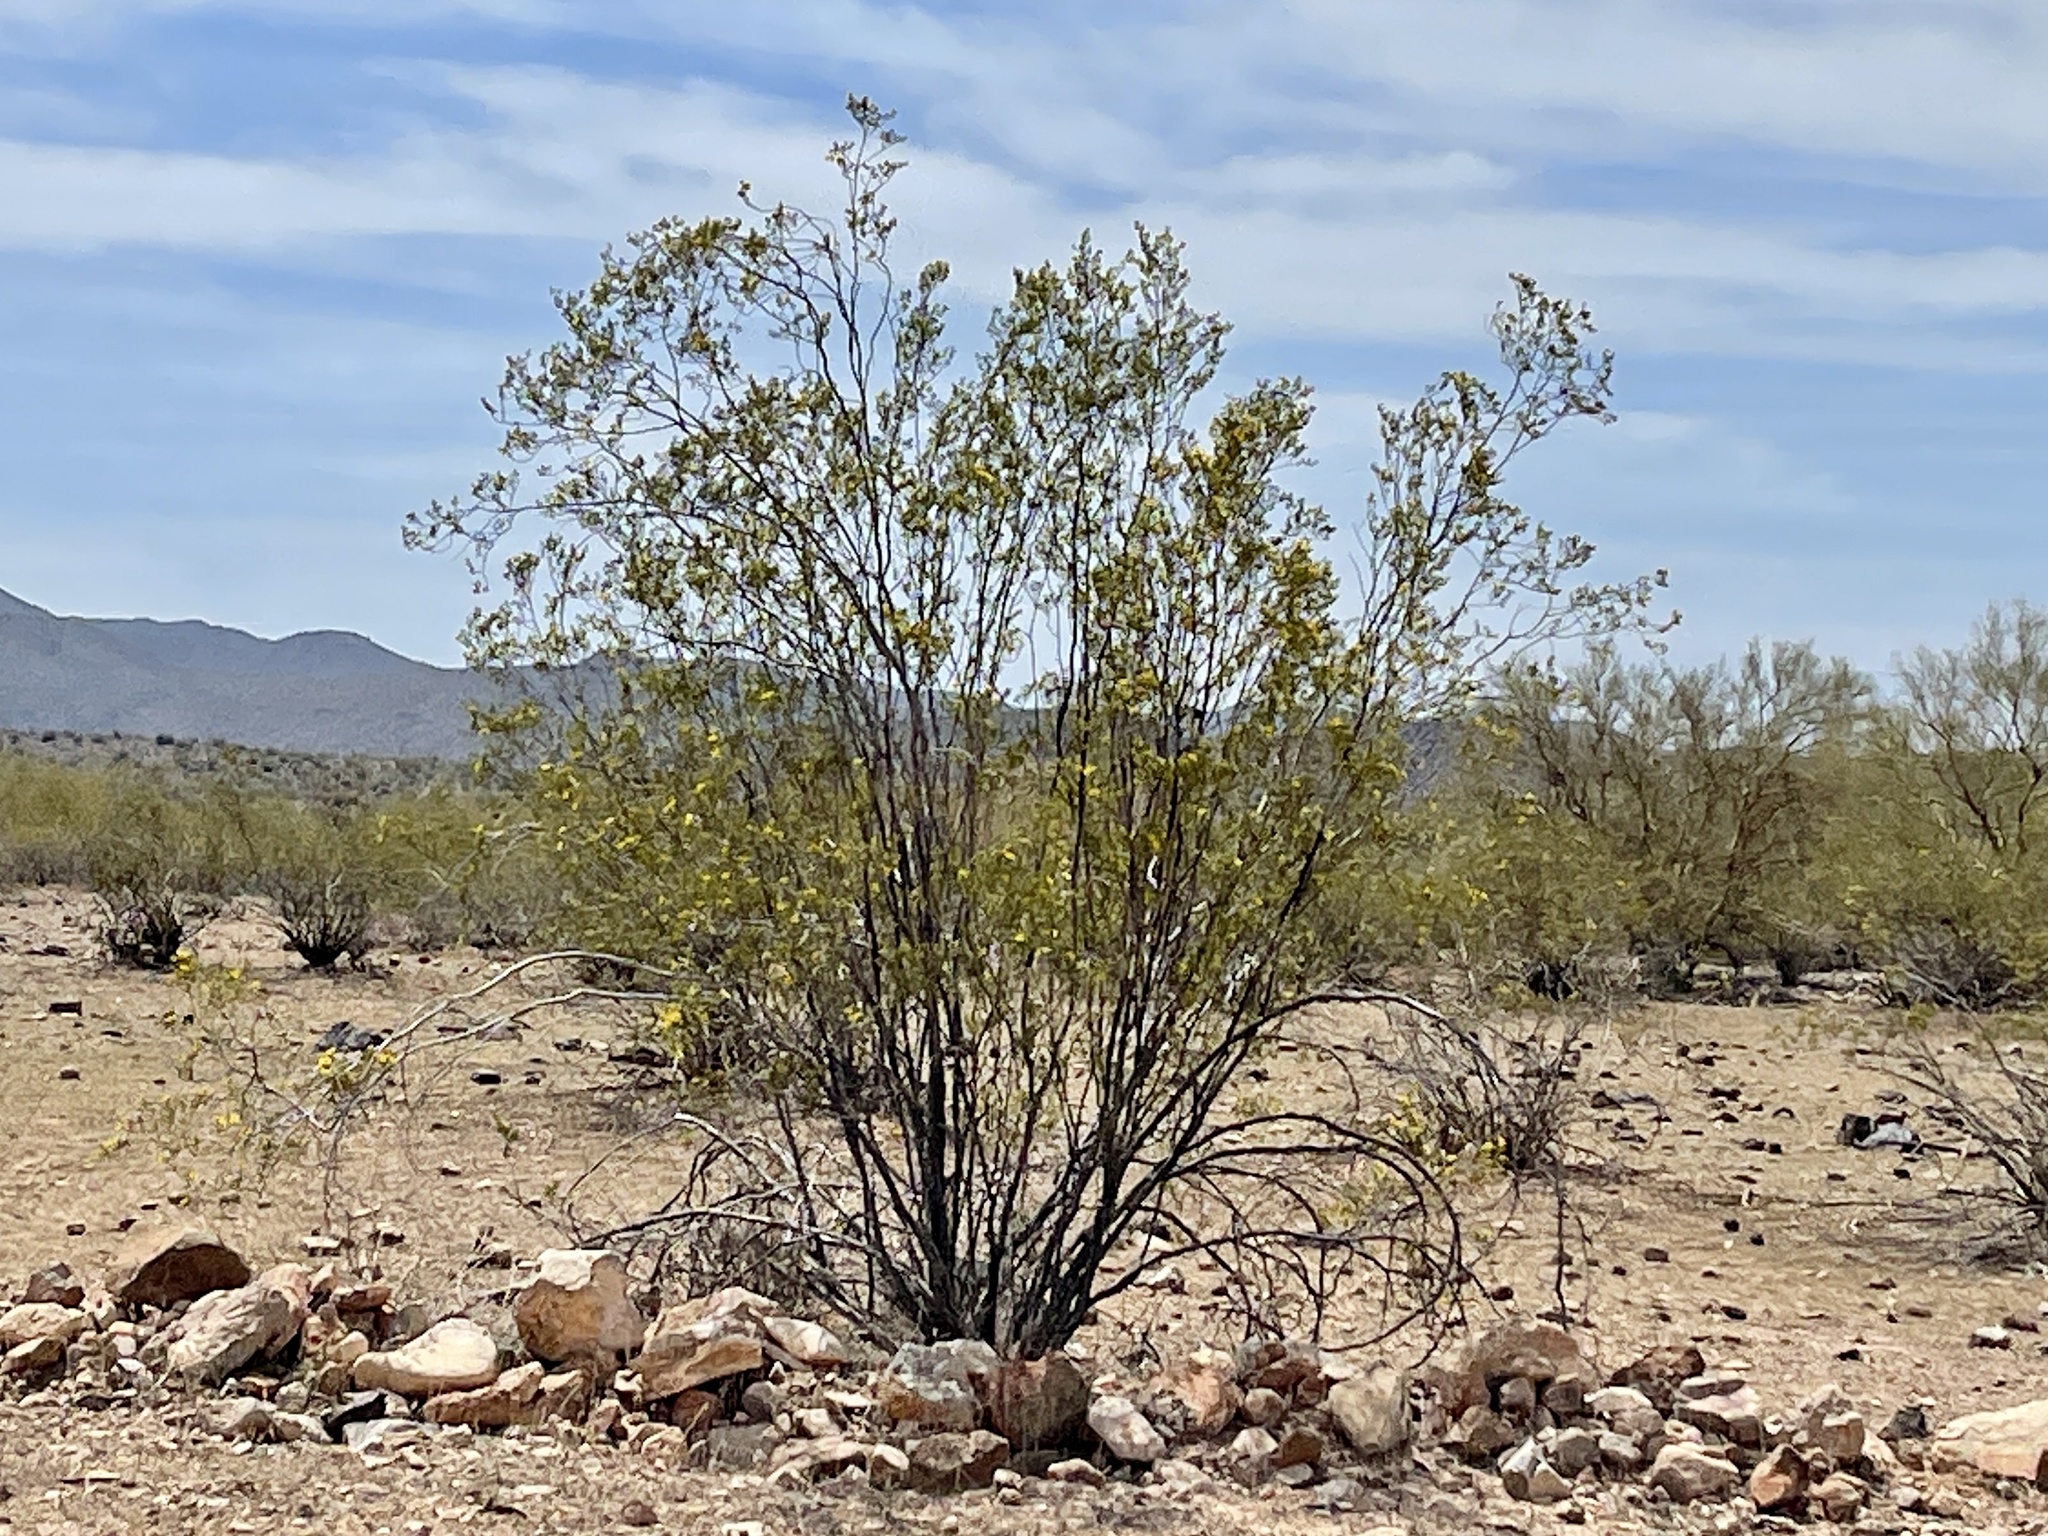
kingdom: Plantae
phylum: Tracheophyta
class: Magnoliopsida
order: Zygophyllales
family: Zygophyllaceae
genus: Larrea
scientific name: Larrea tridentata
